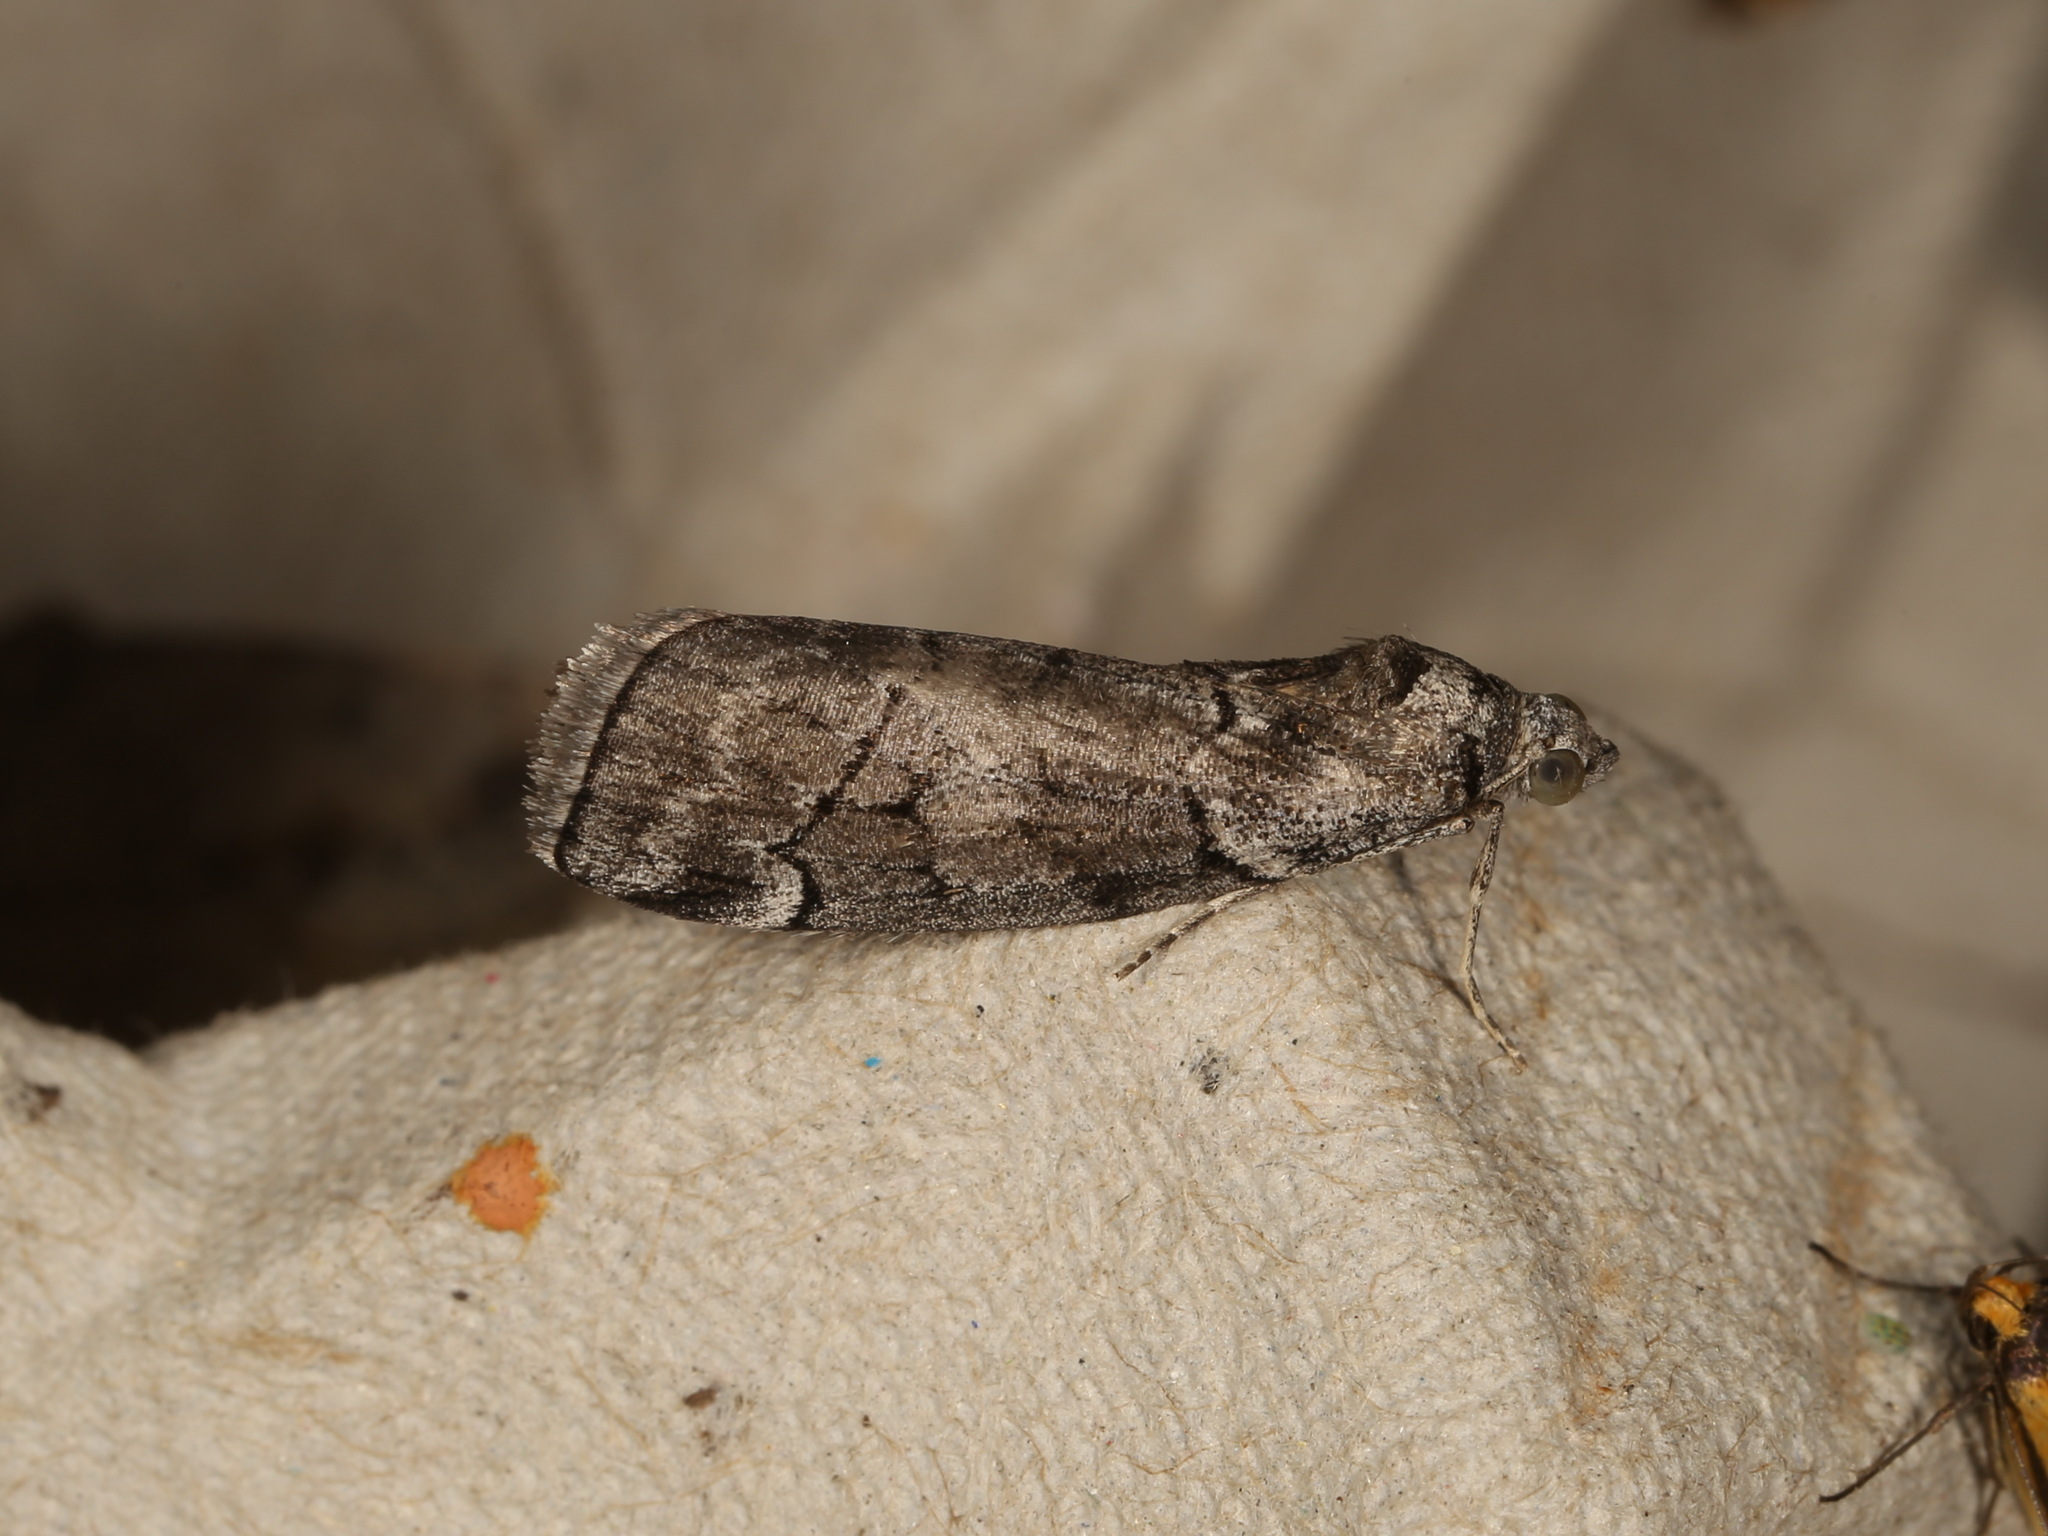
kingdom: Animalia
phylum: Arthropoda
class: Insecta
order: Lepidoptera
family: Geometridae
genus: Corula
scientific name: Corula geometroides
